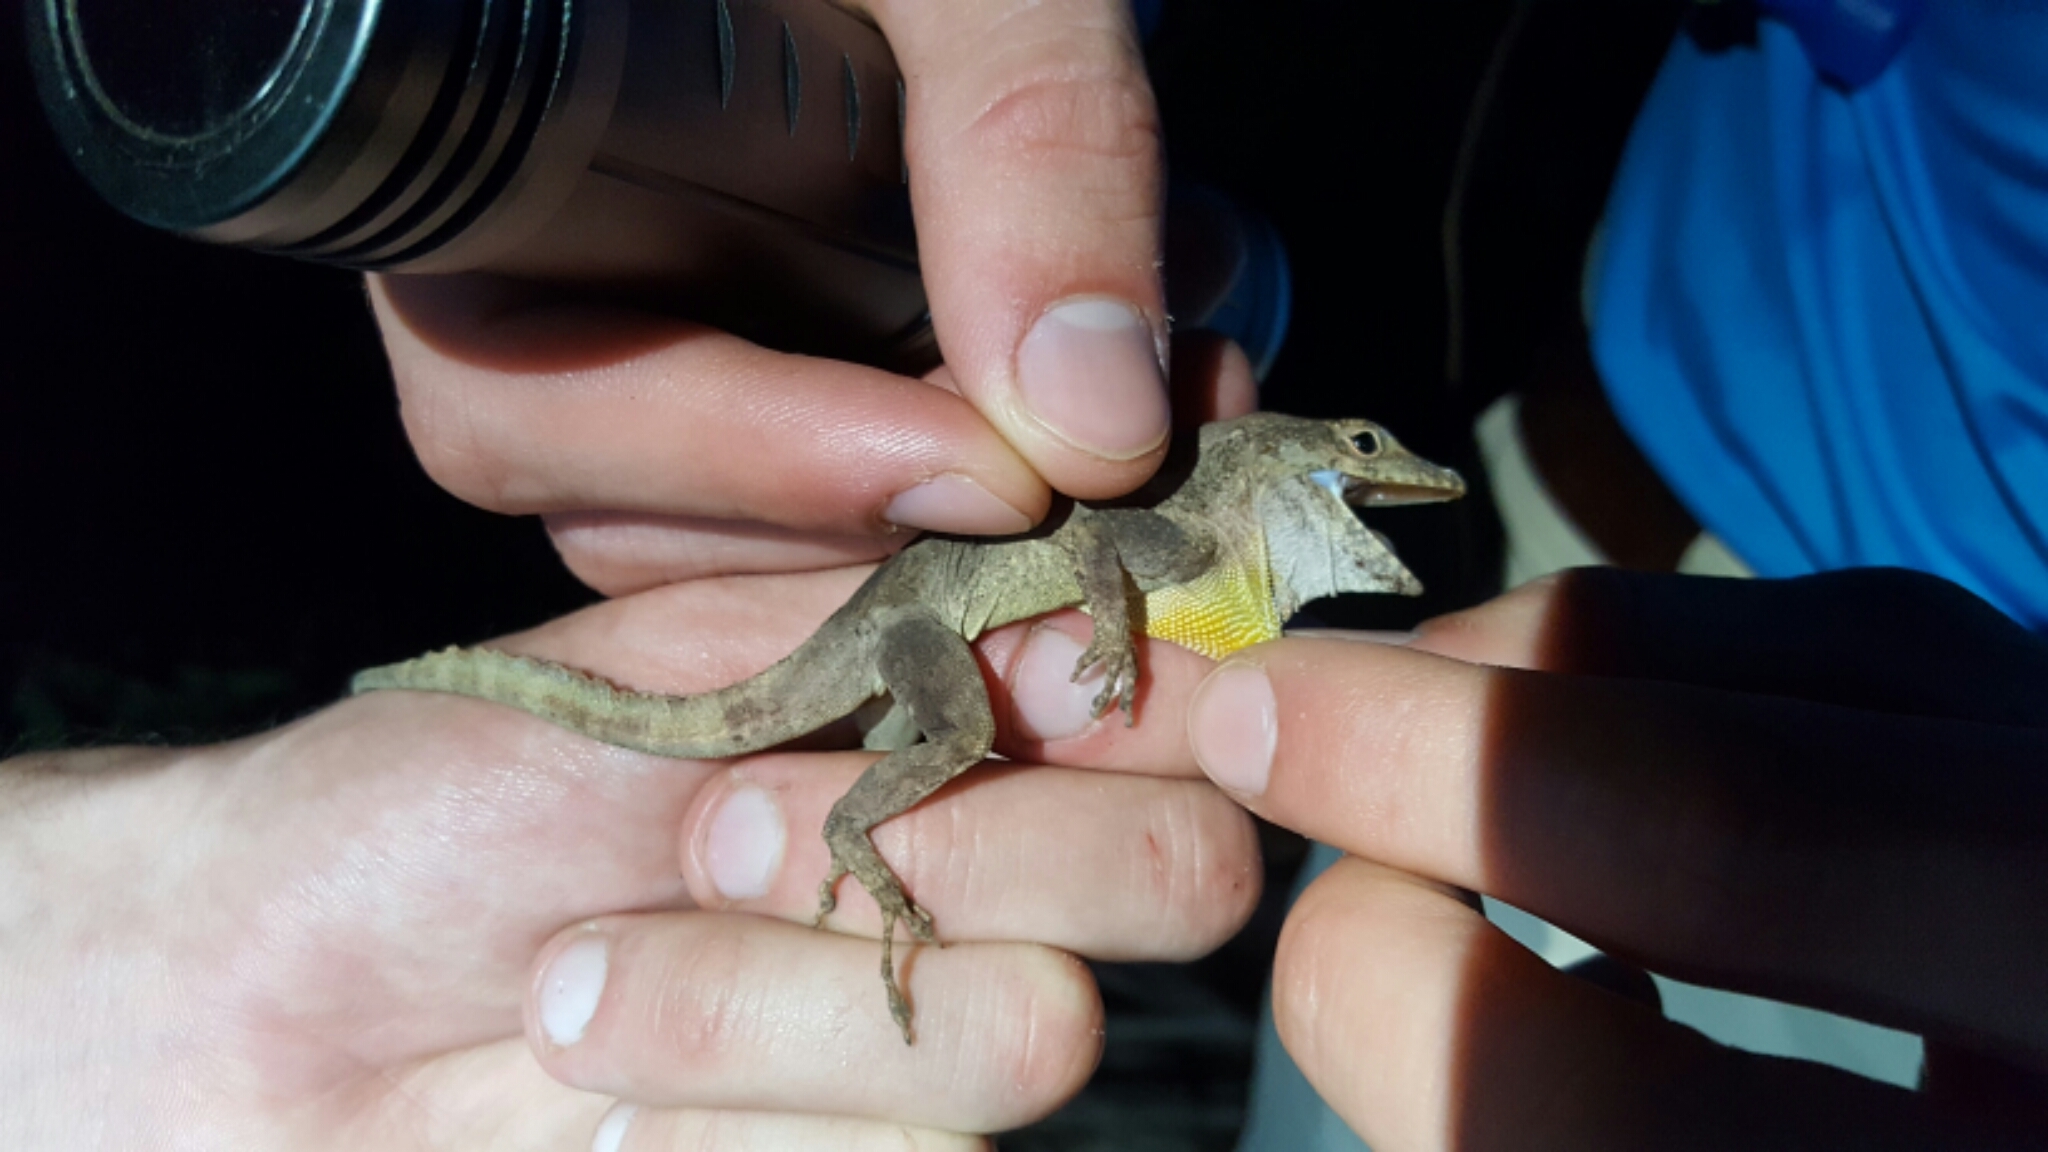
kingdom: Animalia
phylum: Chordata
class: Squamata
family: Dactyloidae
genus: Anolis
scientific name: Anolis cristatellus
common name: Crested anole
